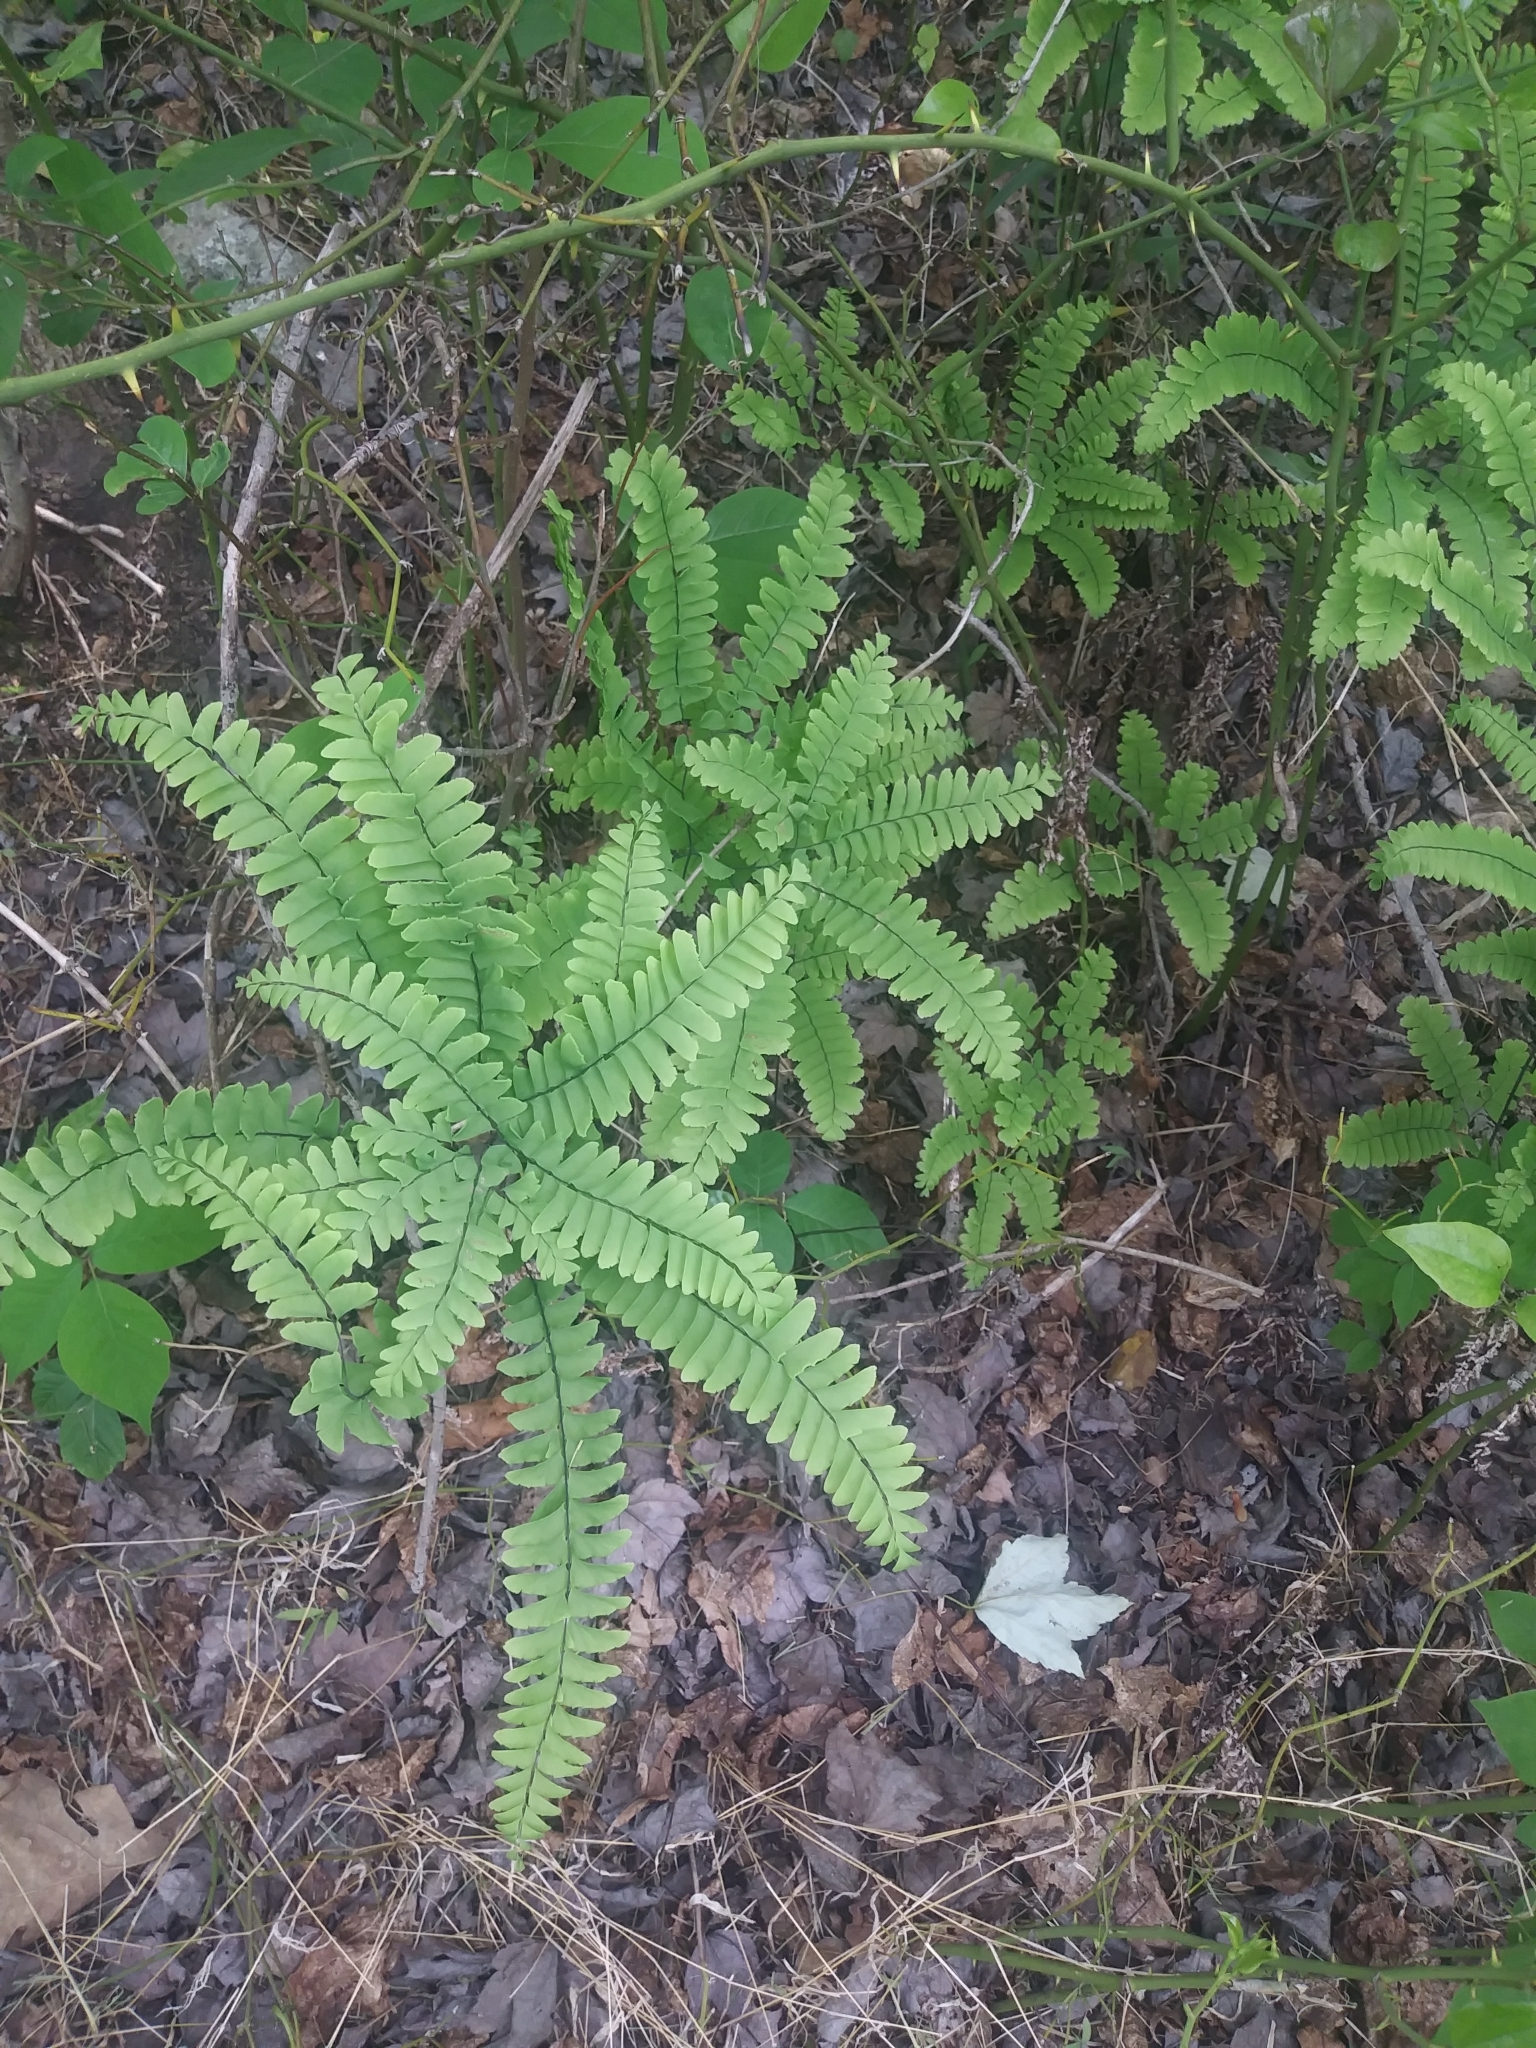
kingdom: Plantae
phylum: Tracheophyta
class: Polypodiopsida
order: Polypodiales
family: Pteridaceae
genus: Adiantum
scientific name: Adiantum pedatum
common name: Five-finger fern
